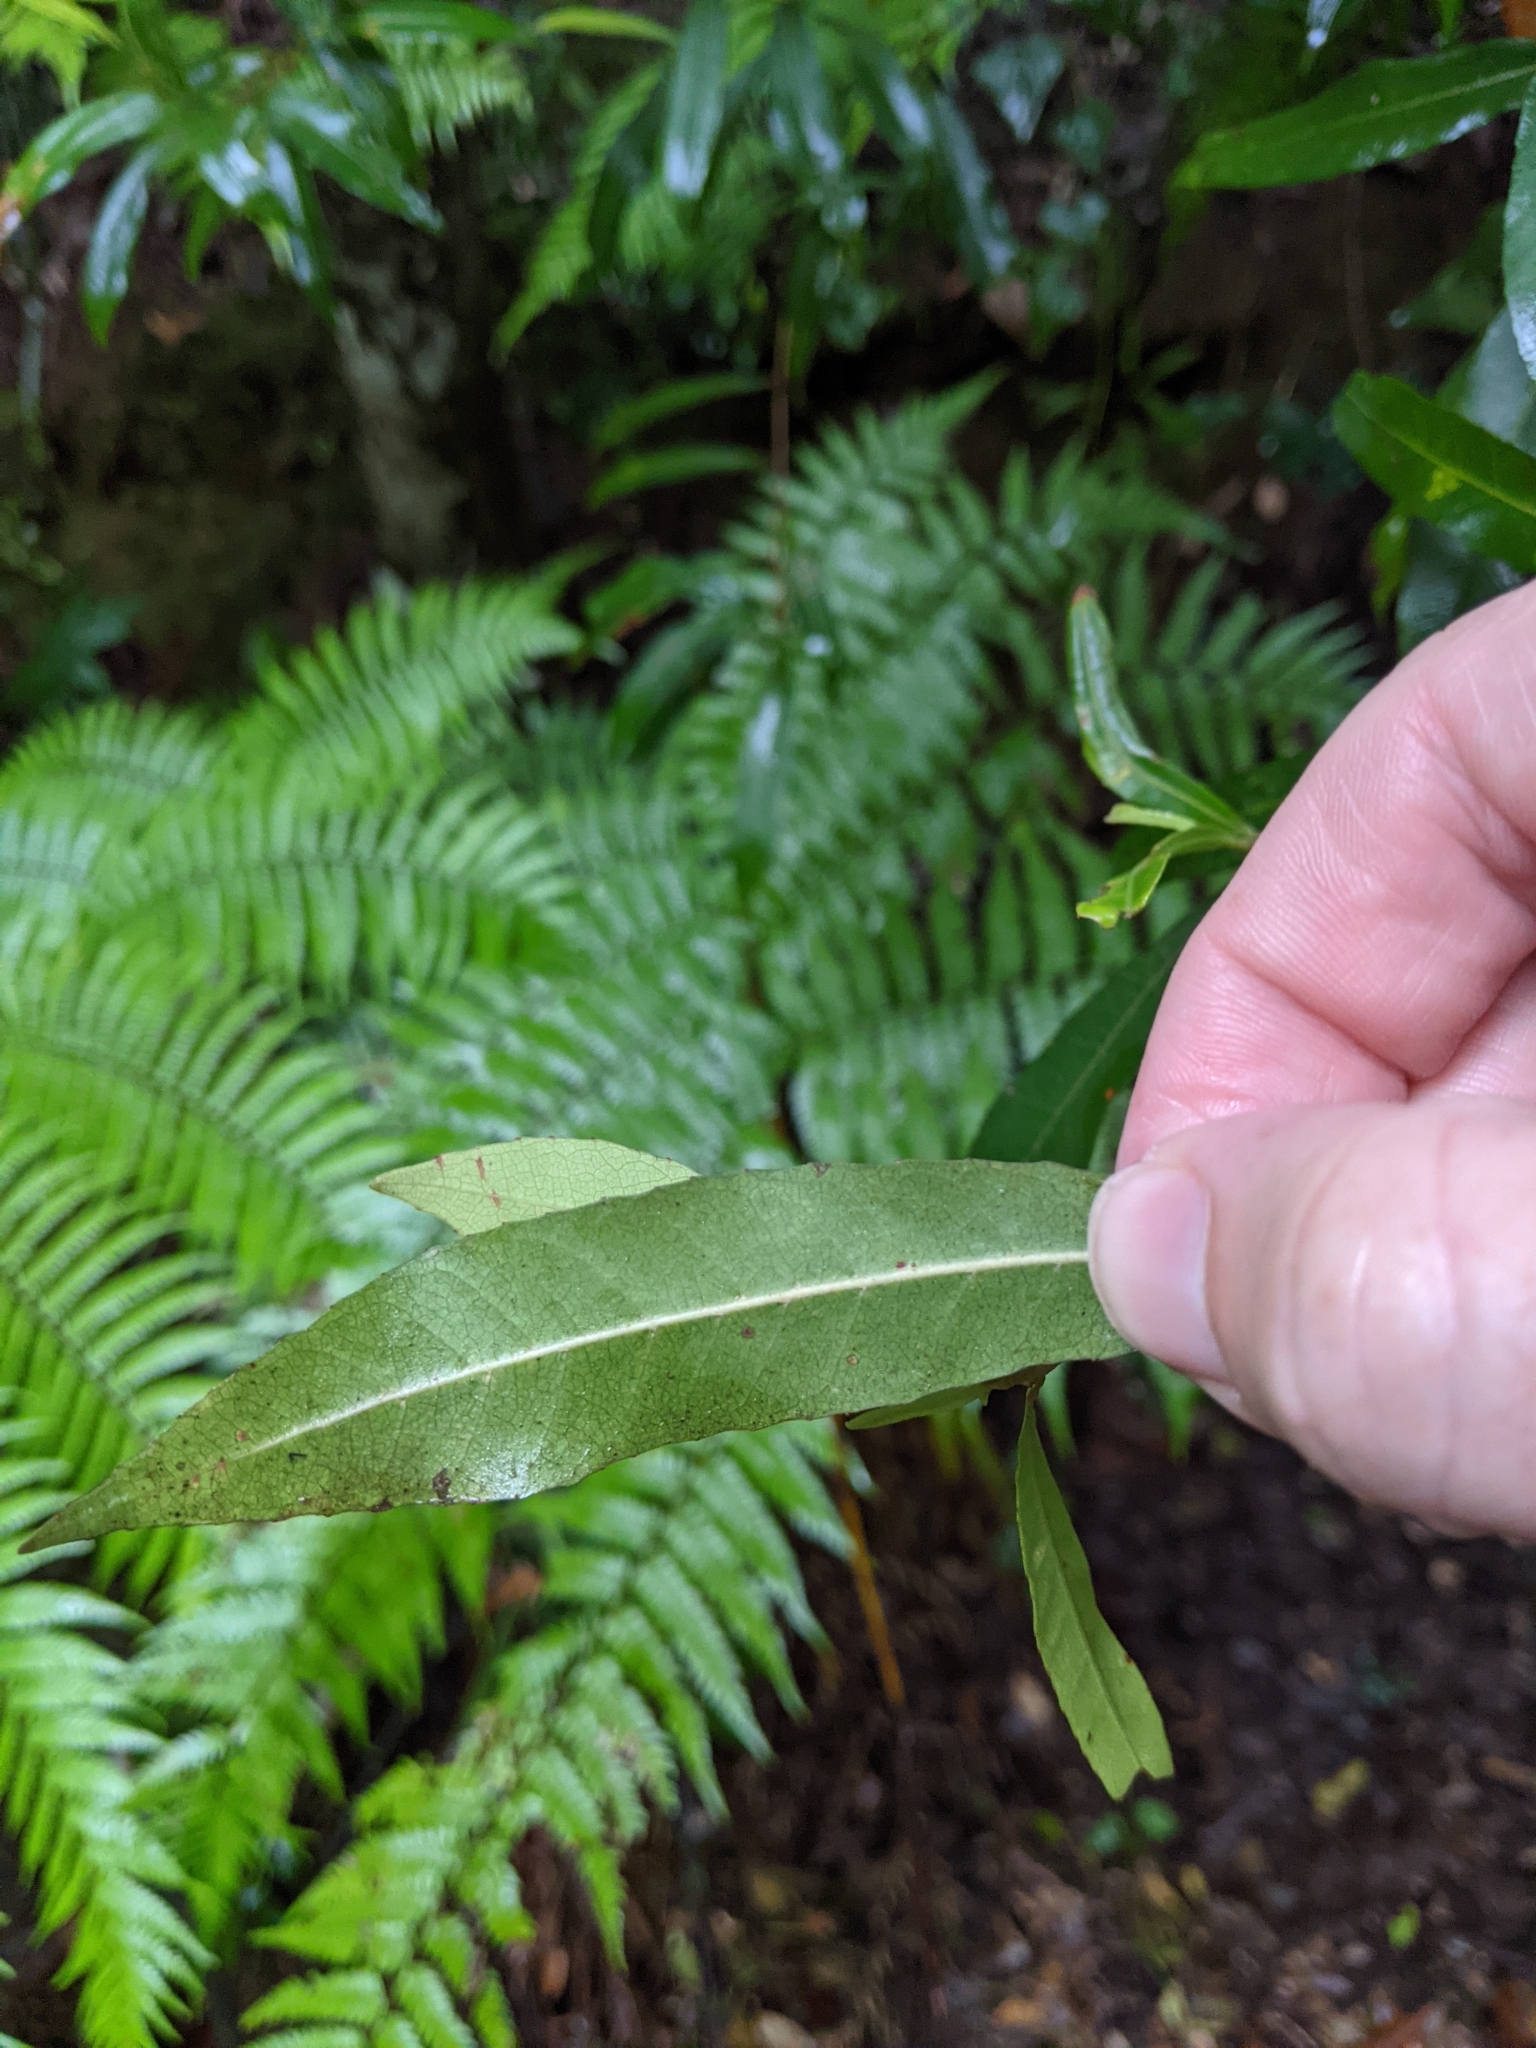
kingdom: Plantae
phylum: Tracheophyta
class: Magnoliopsida
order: Oxalidales
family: Elaeocarpaceae
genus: Elaeocarpus
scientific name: Elaeocarpus reticulatus
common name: Ash quandong
